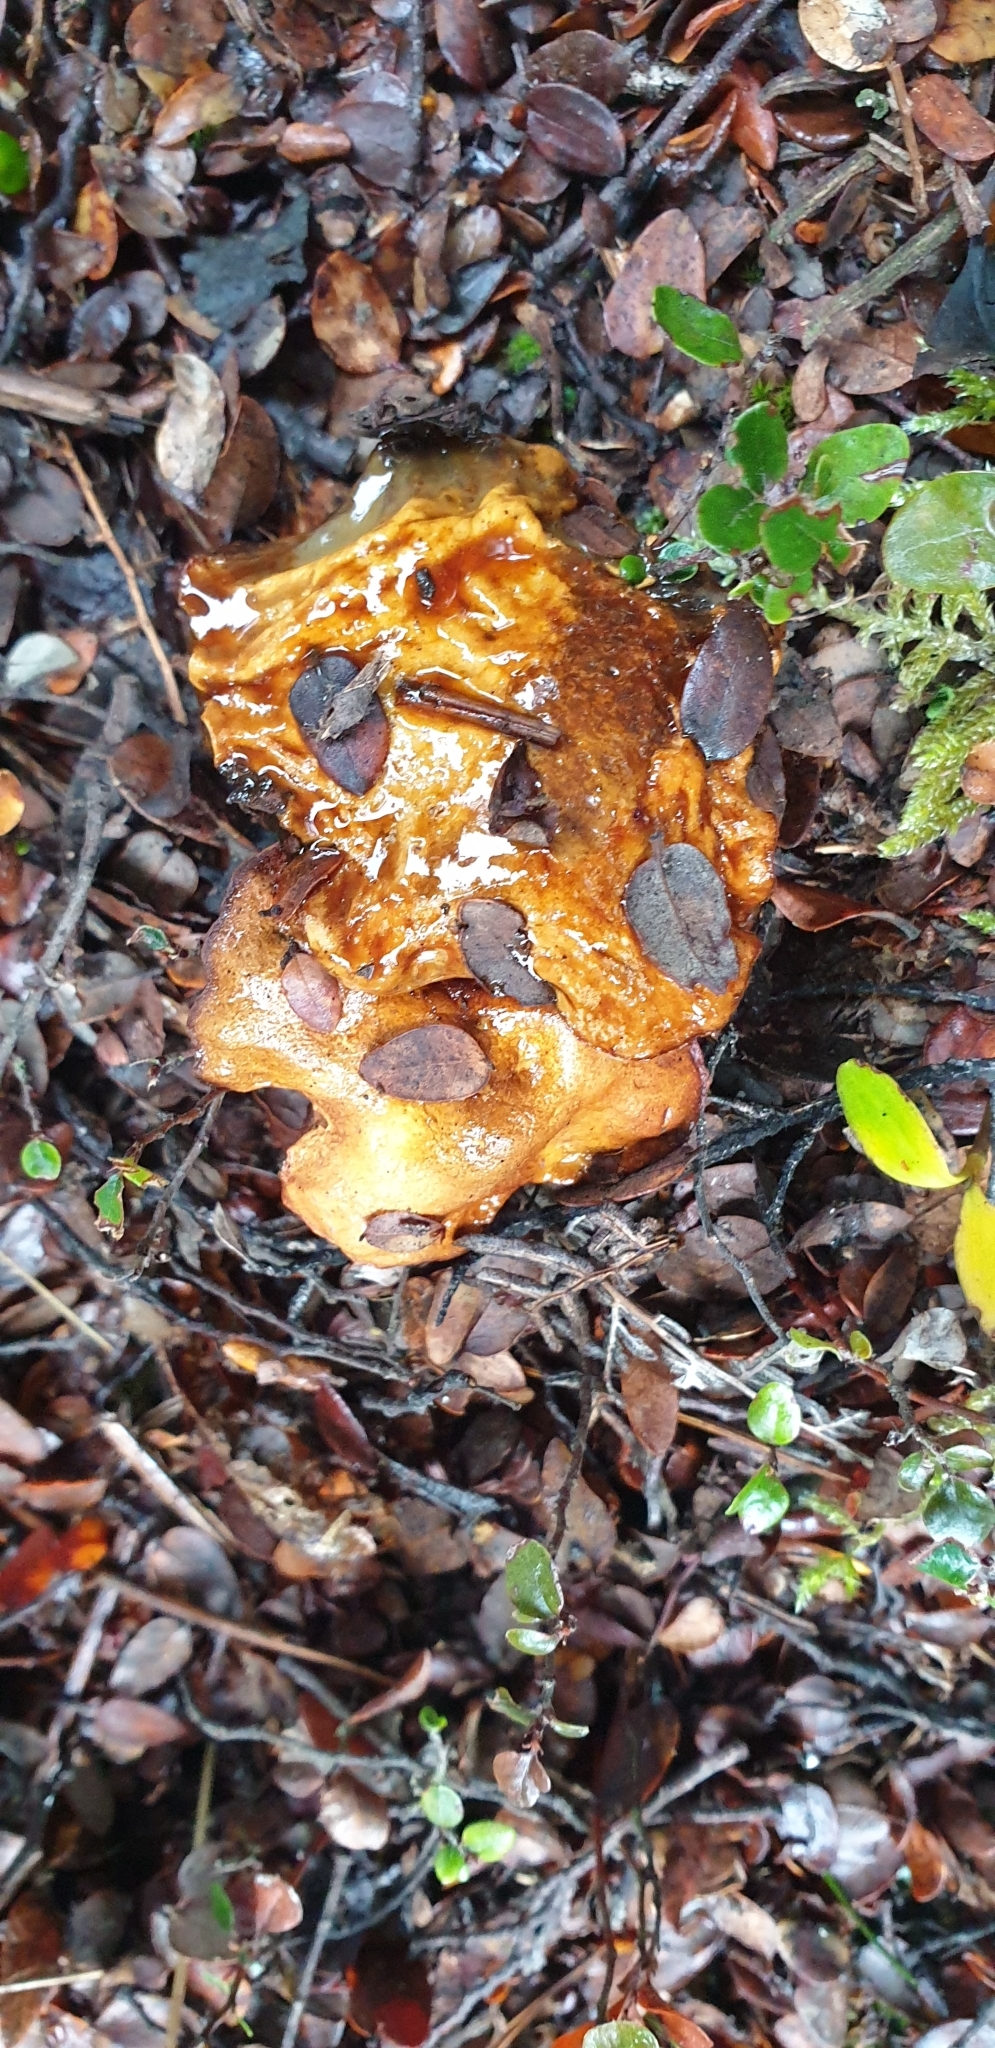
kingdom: Fungi
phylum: Basidiomycota
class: Agaricomycetes
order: Boletales
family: Boletaceae
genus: Chalciporus
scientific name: Chalciporus piperatus
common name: Peppery bolete
